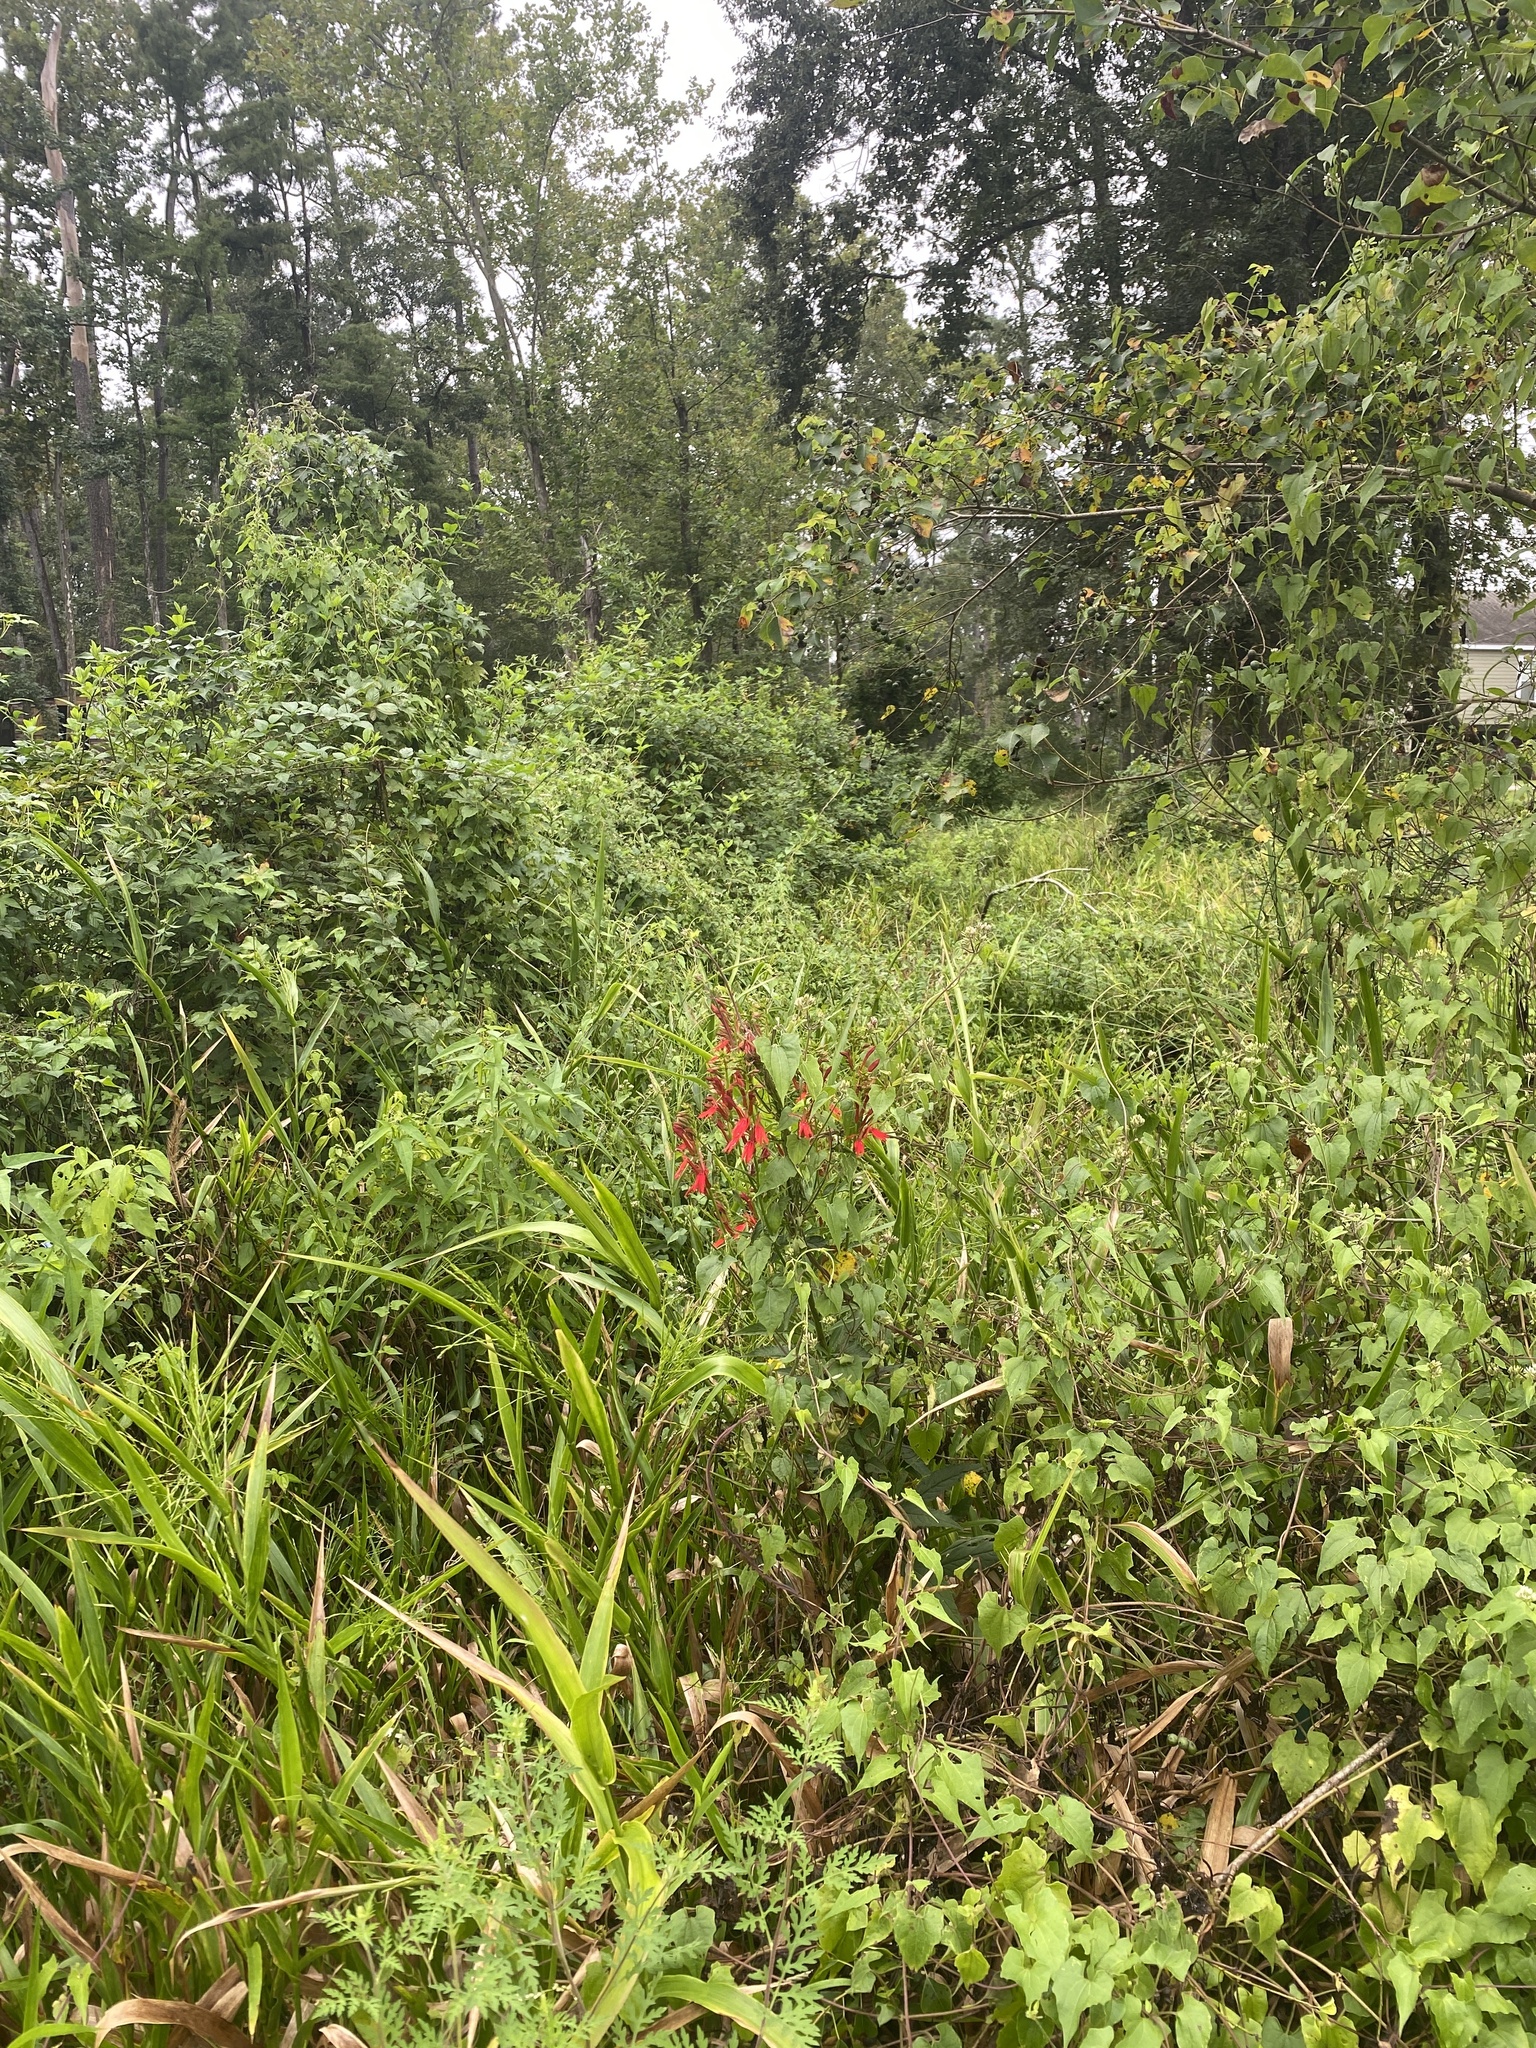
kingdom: Plantae
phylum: Tracheophyta
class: Magnoliopsida
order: Asterales
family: Campanulaceae
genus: Lobelia
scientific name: Lobelia cardinalis
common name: Cardinal flower
